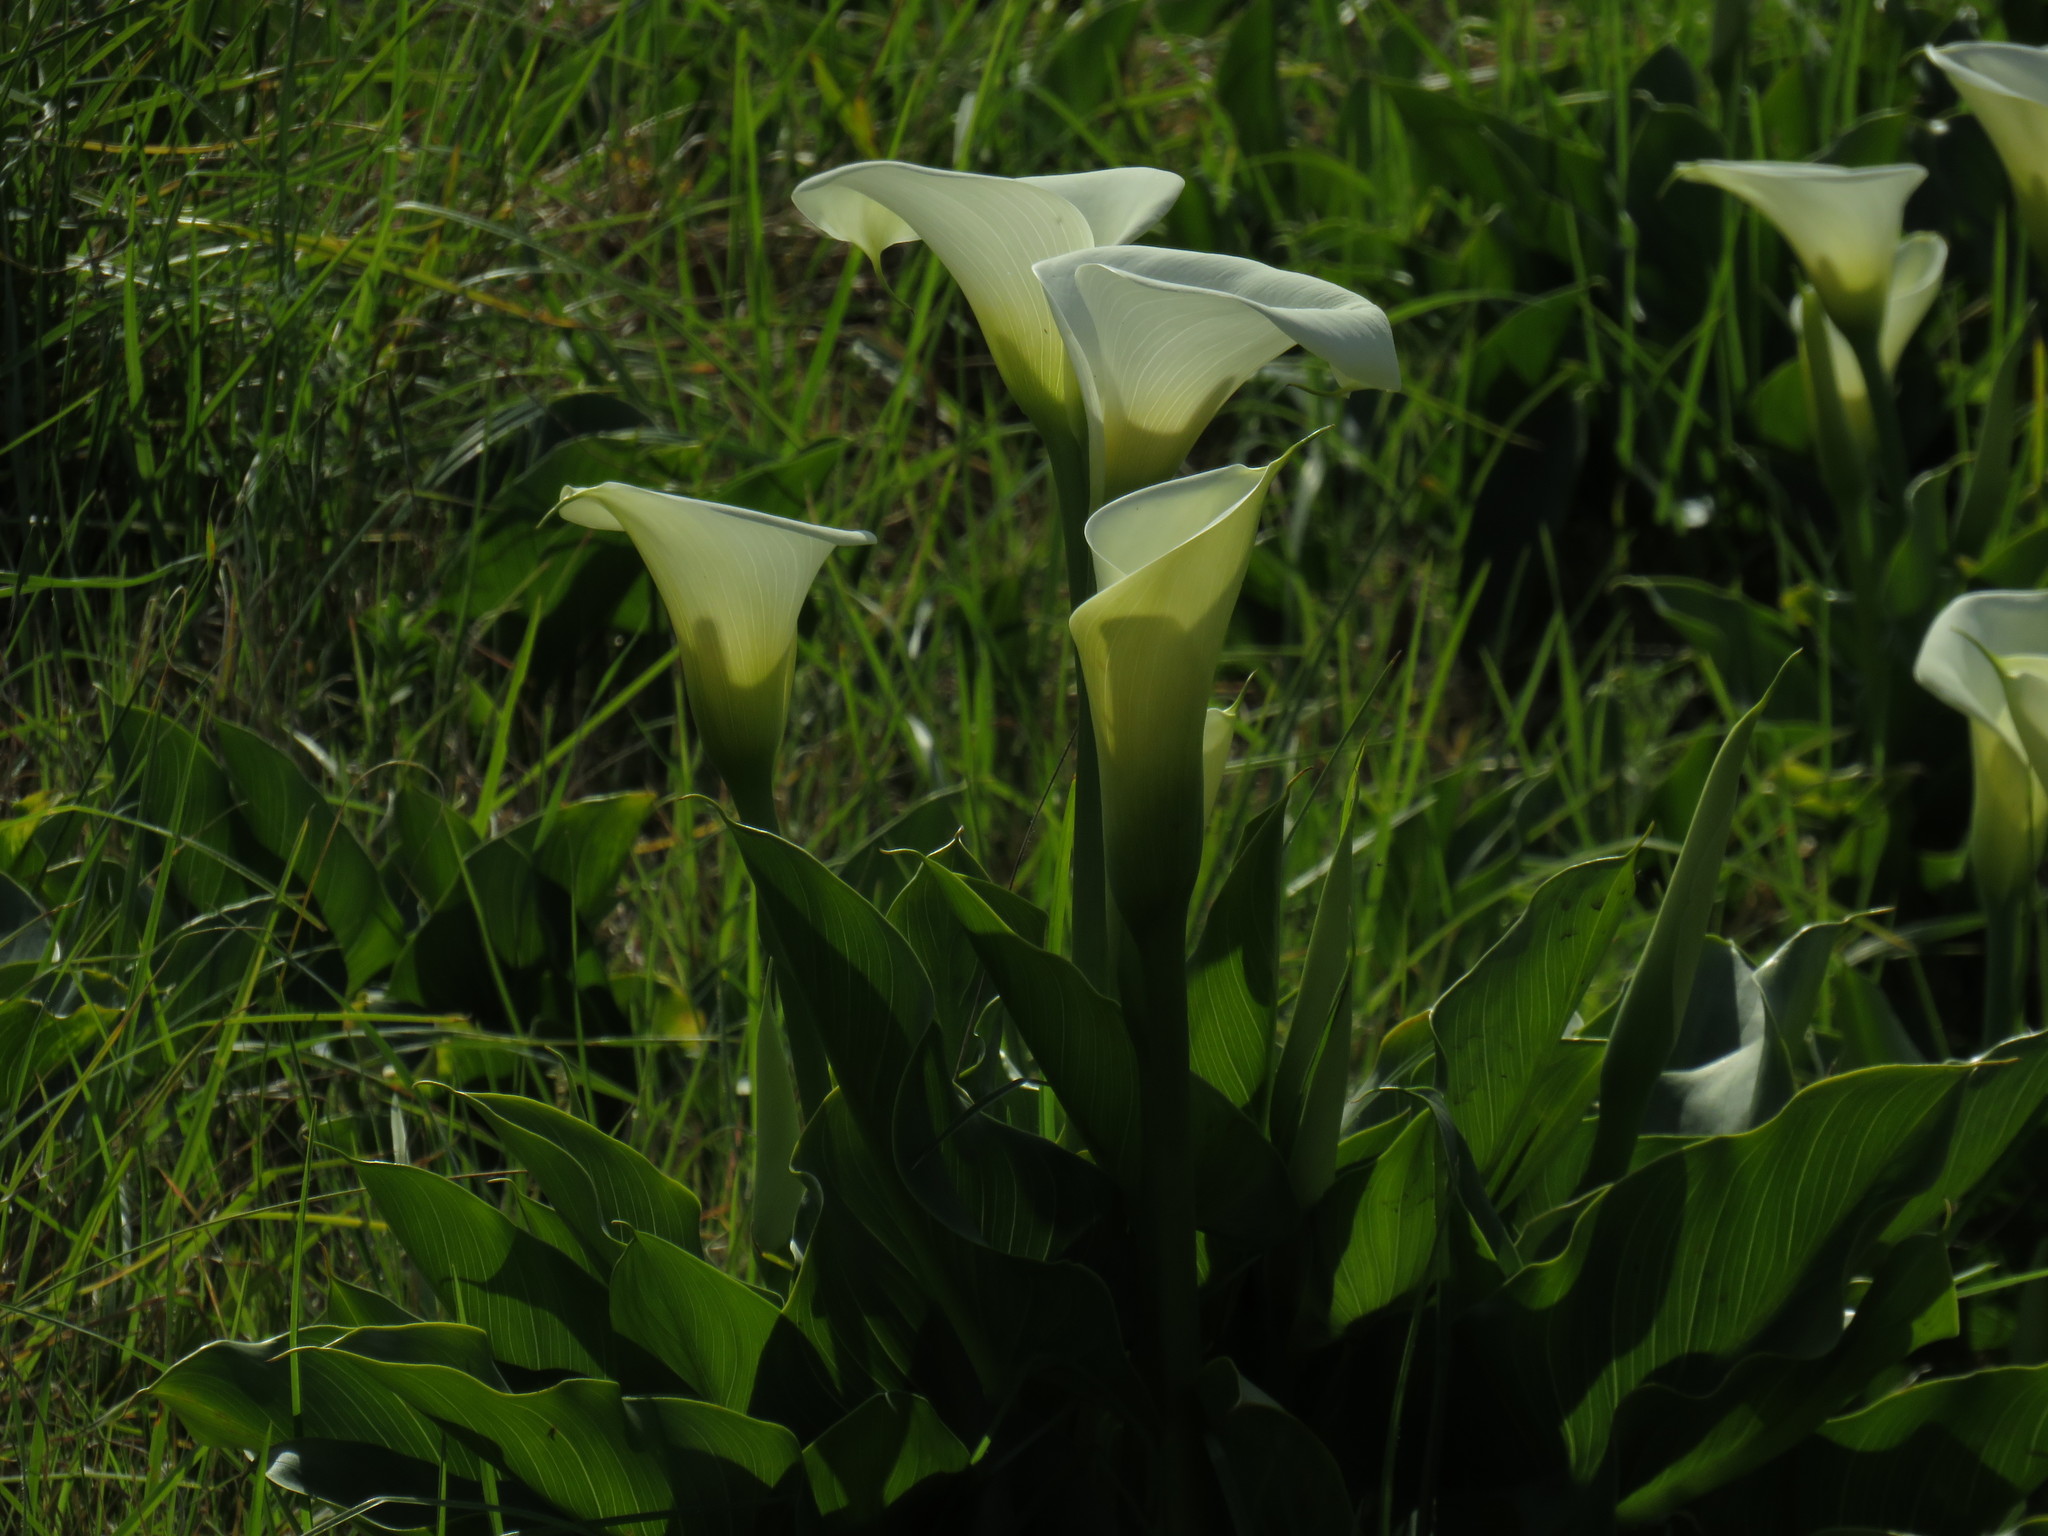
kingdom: Plantae
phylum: Tracheophyta
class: Liliopsida
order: Alismatales
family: Araceae
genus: Zantedeschia
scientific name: Zantedeschia aethiopica
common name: Altar-lily
